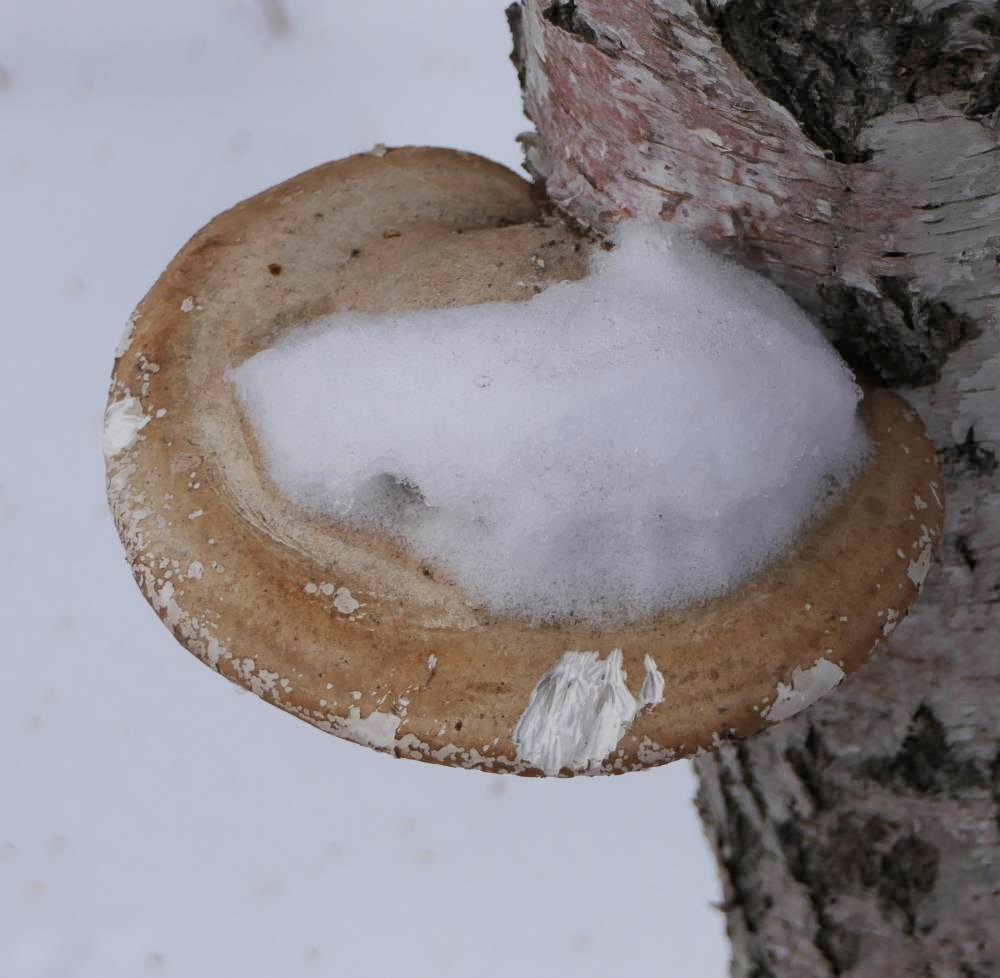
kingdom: Fungi
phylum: Basidiomycota
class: Agaricomycetes
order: Polyporales
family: Fomitopsidaceae
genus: Fomitopsis
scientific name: Fomitopsis betulina
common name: Birch polypore
